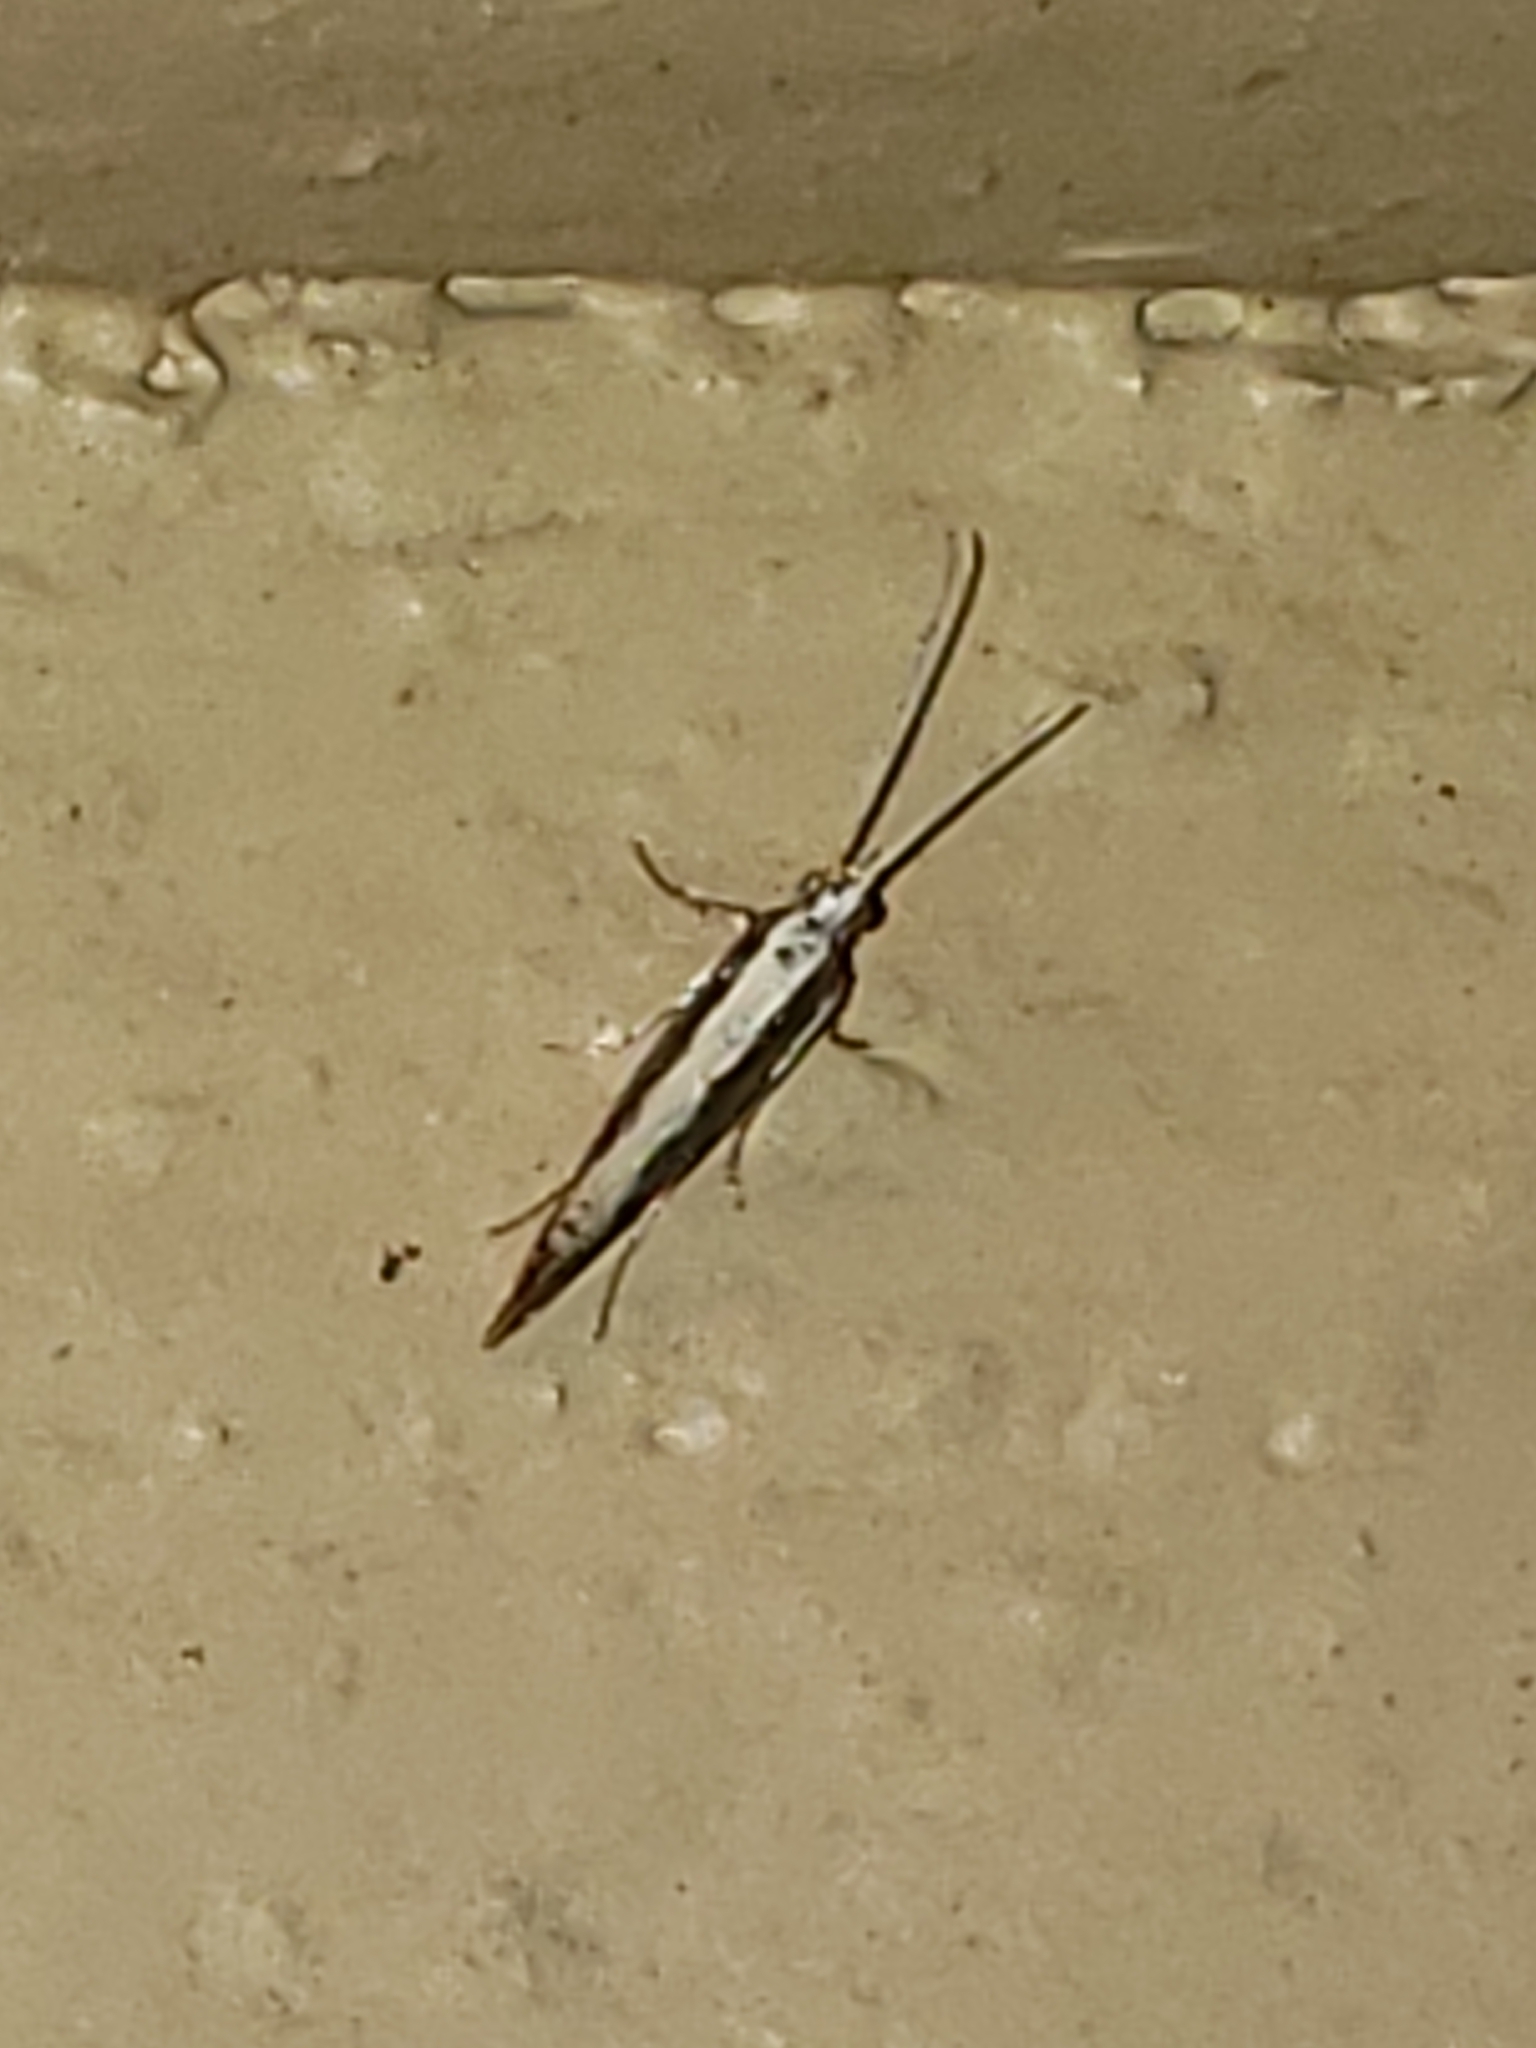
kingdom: Animalia
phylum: Arthropoda
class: Insecta
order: Lepidoptera
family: Plutellidae
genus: Plutella
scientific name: Plutella xylostella
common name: Diamond-back moth
